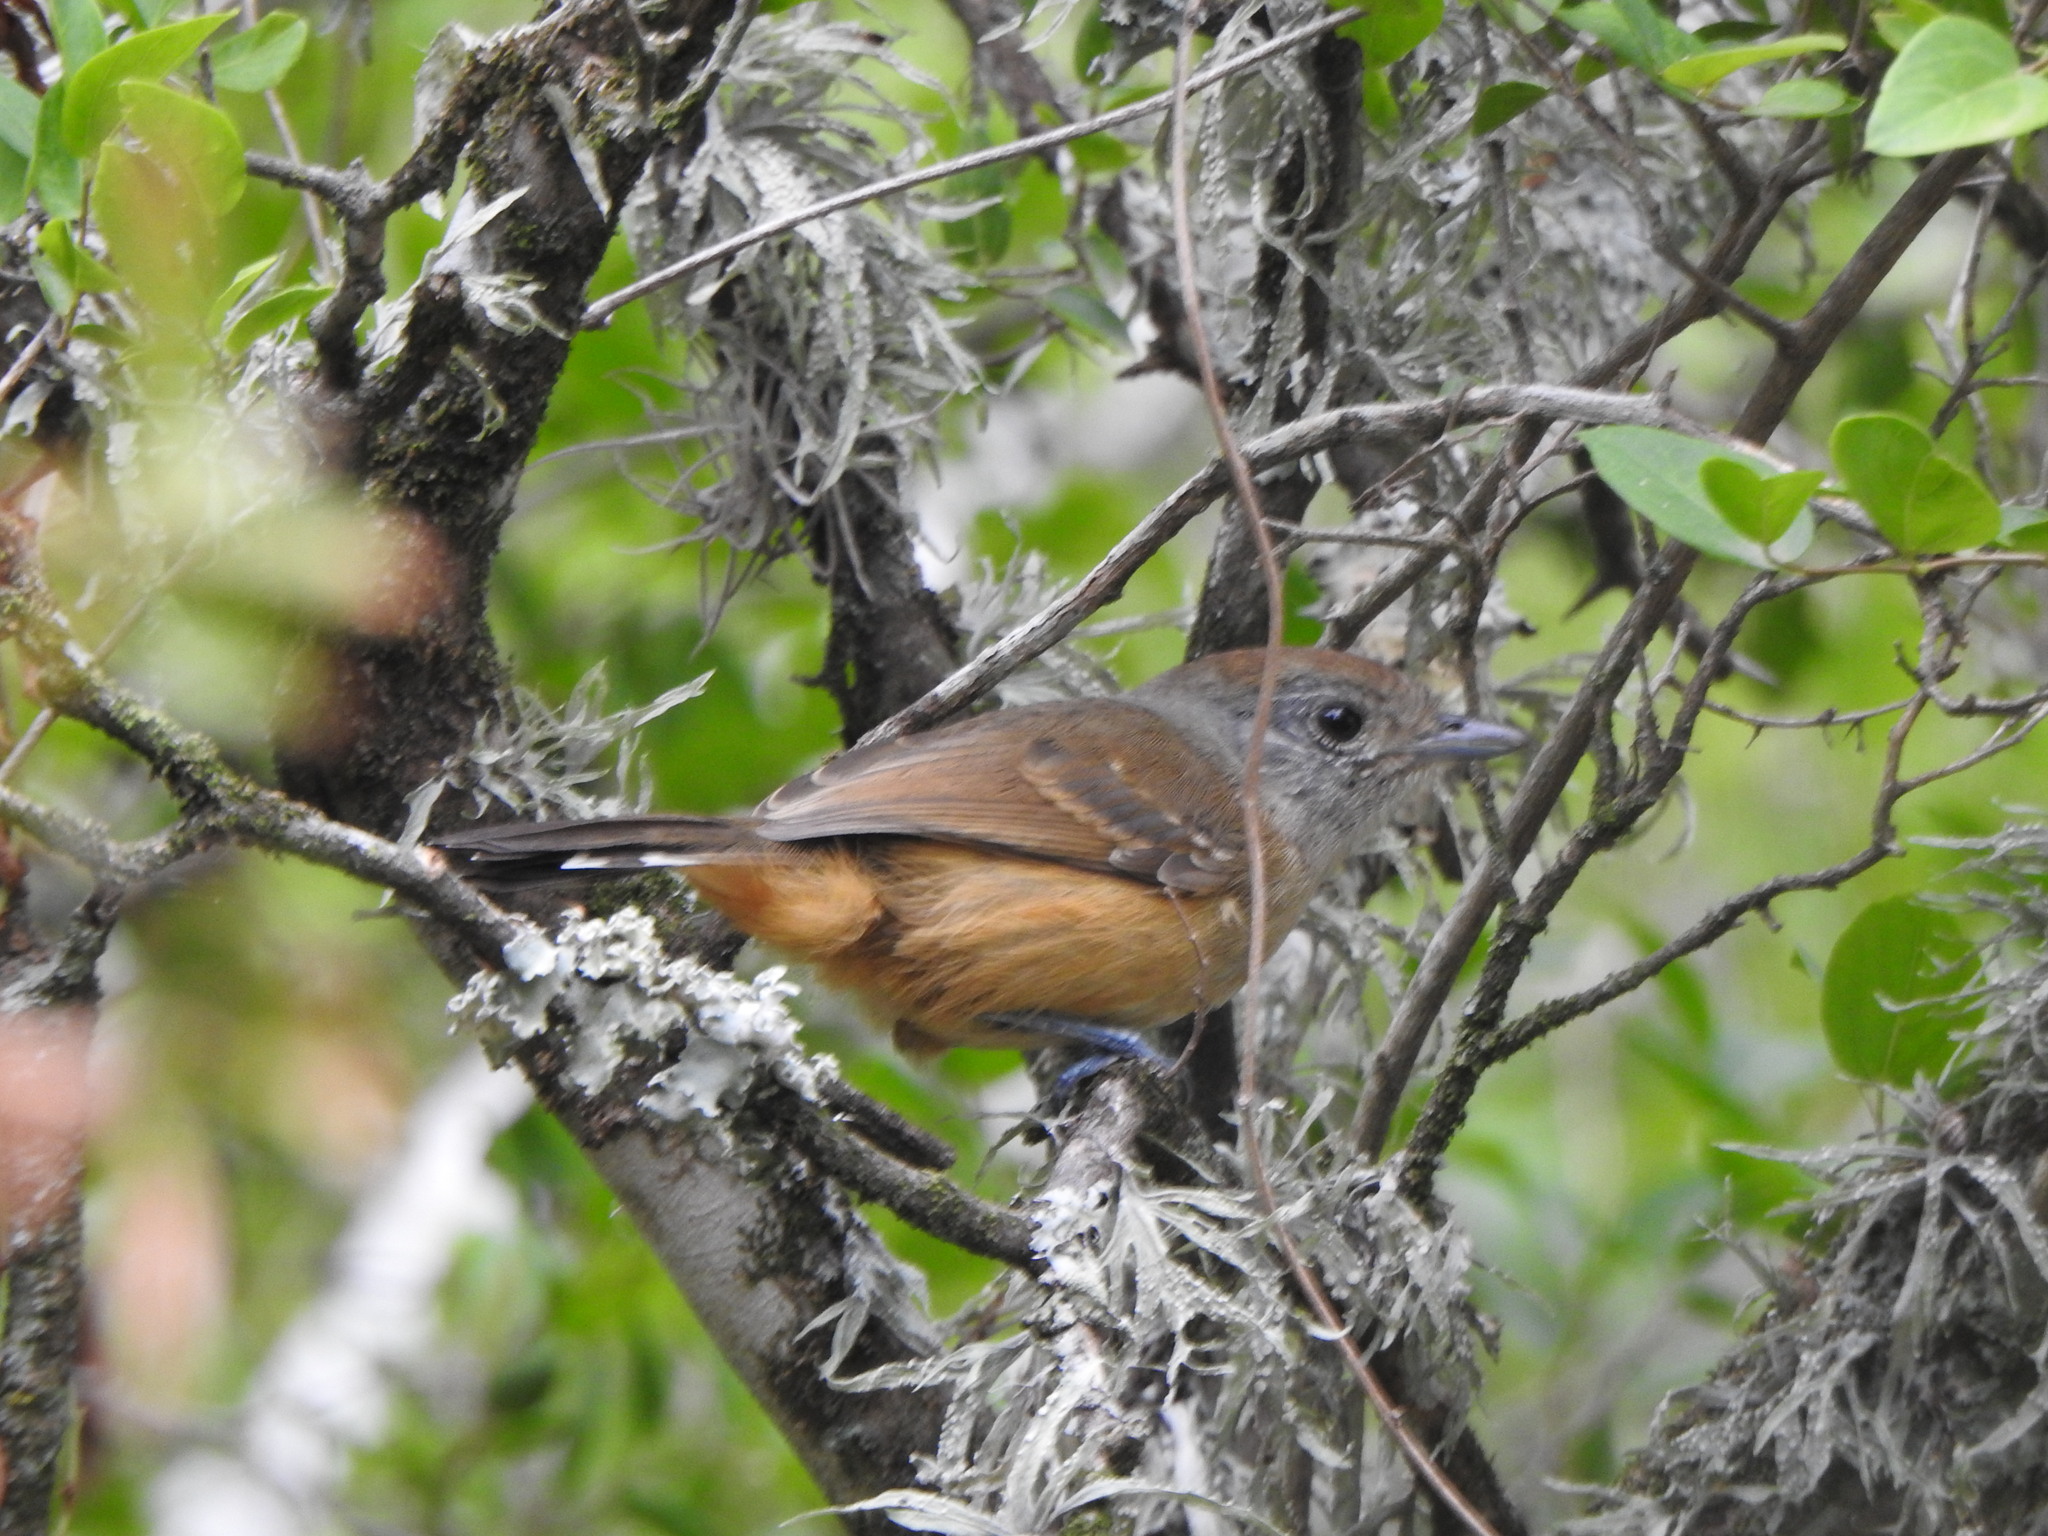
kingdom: Animalia
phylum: Chordata
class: Aves
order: Passeriformes
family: Thamnophilidae
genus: Thamnophilus
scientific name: Thamnophilus caerulescens
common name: Variable antshrike
